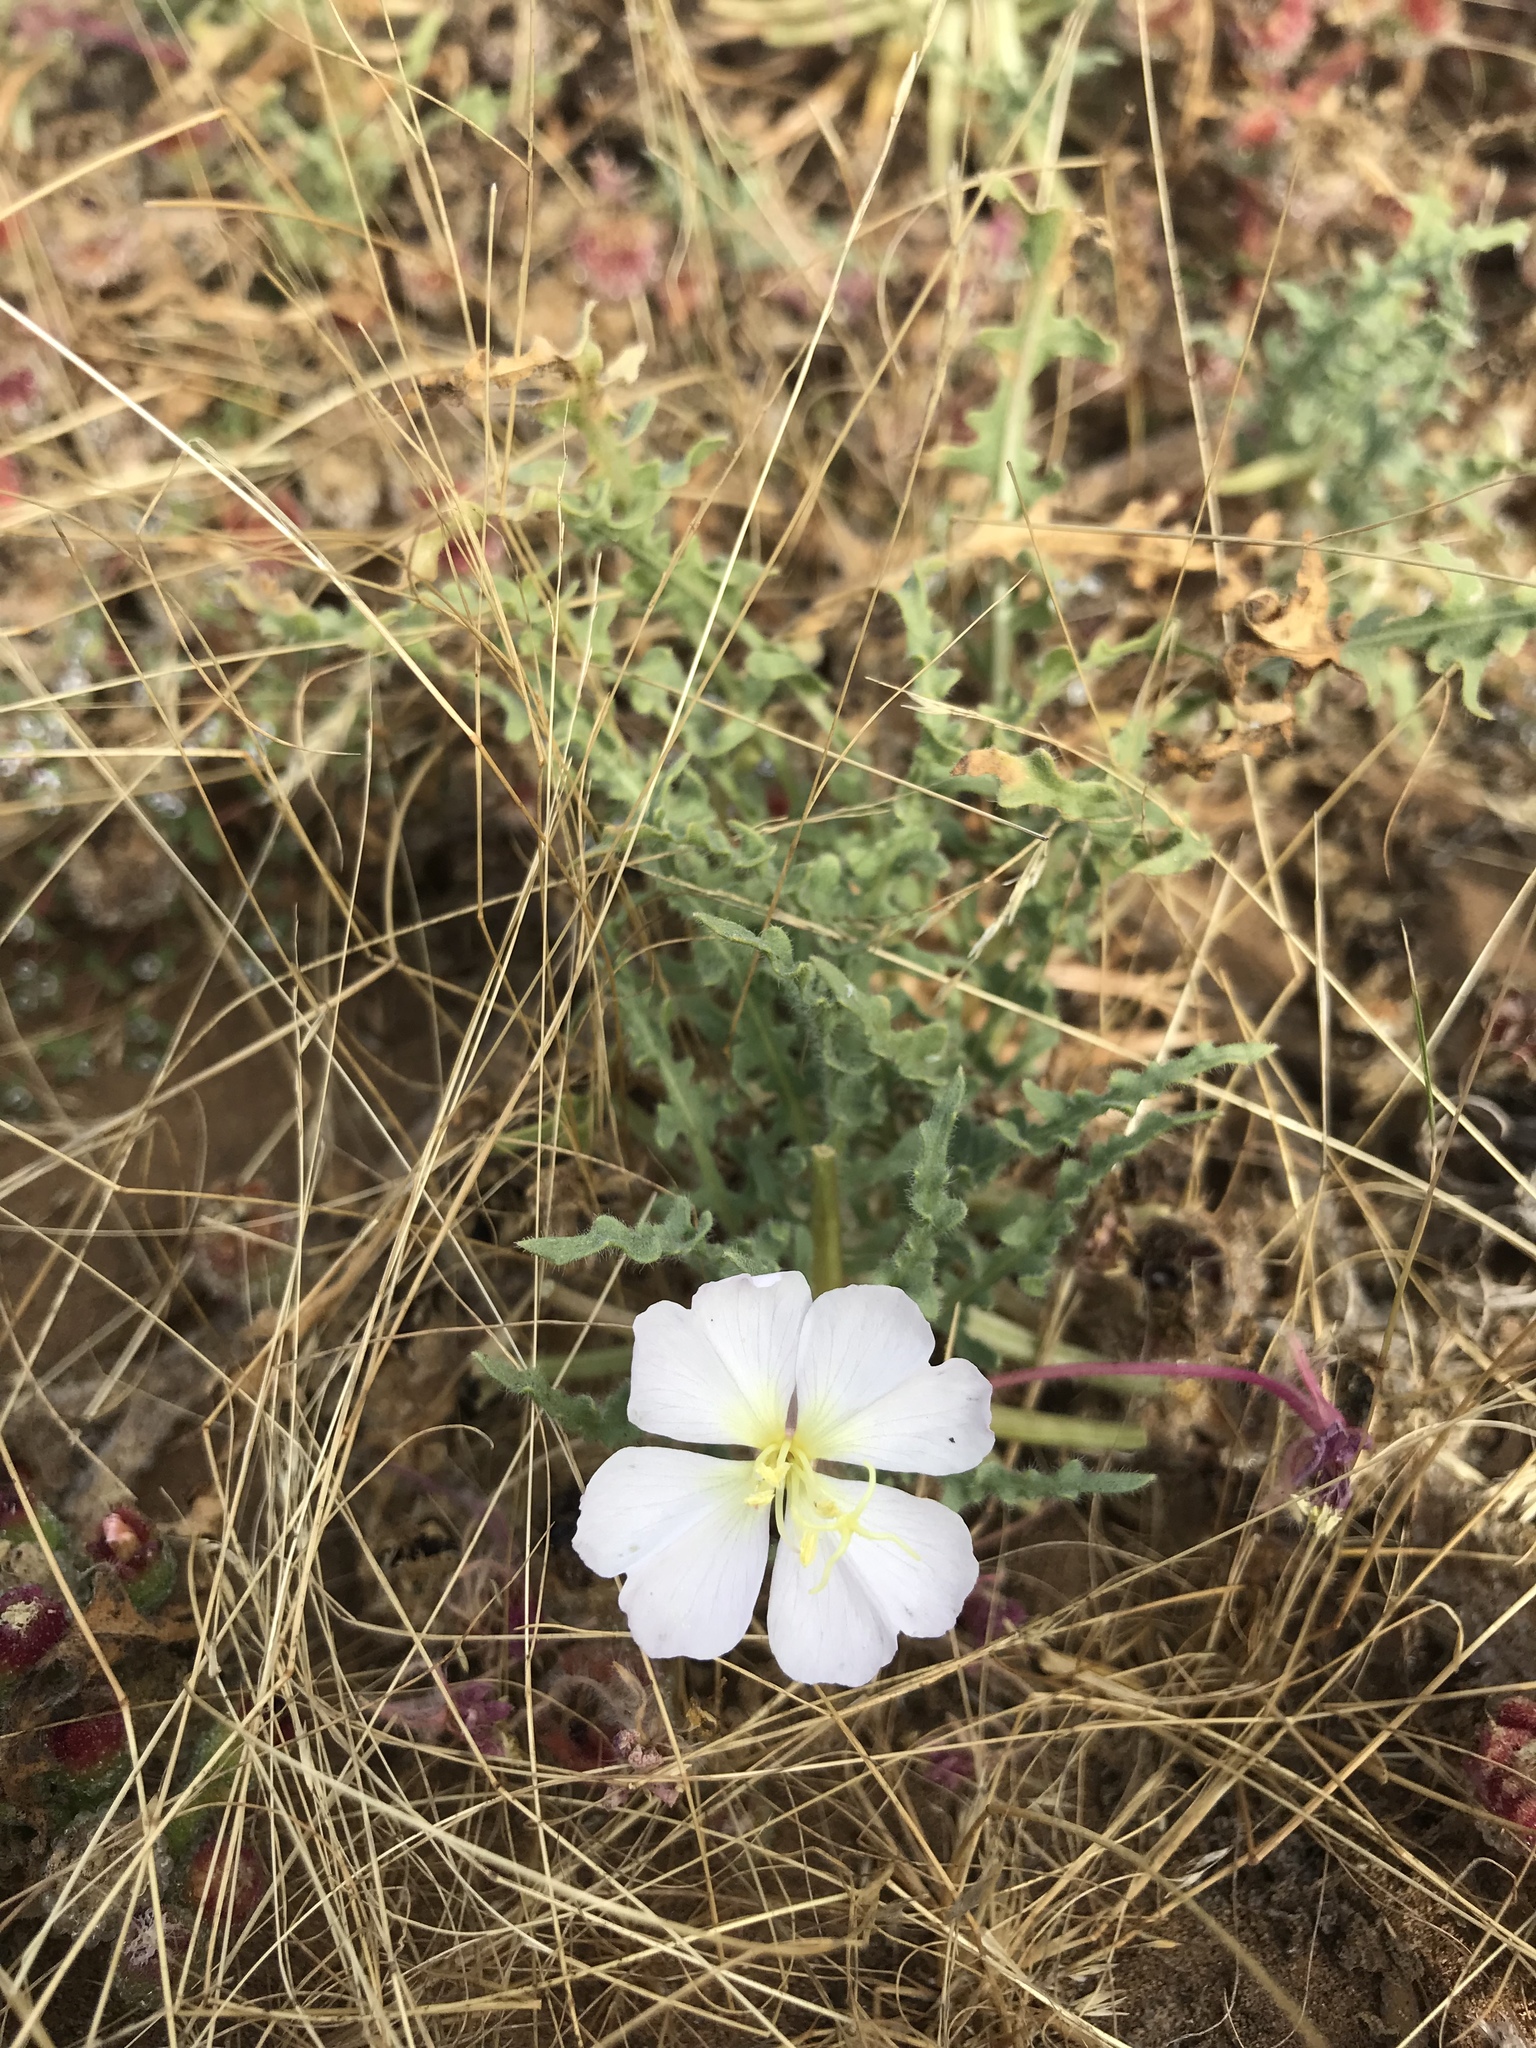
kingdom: Plantae
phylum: Tracheophyta
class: Magnoliopsida
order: Myrtales
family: Onagraceae
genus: Oenothera
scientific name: Oenothera wigginsii
